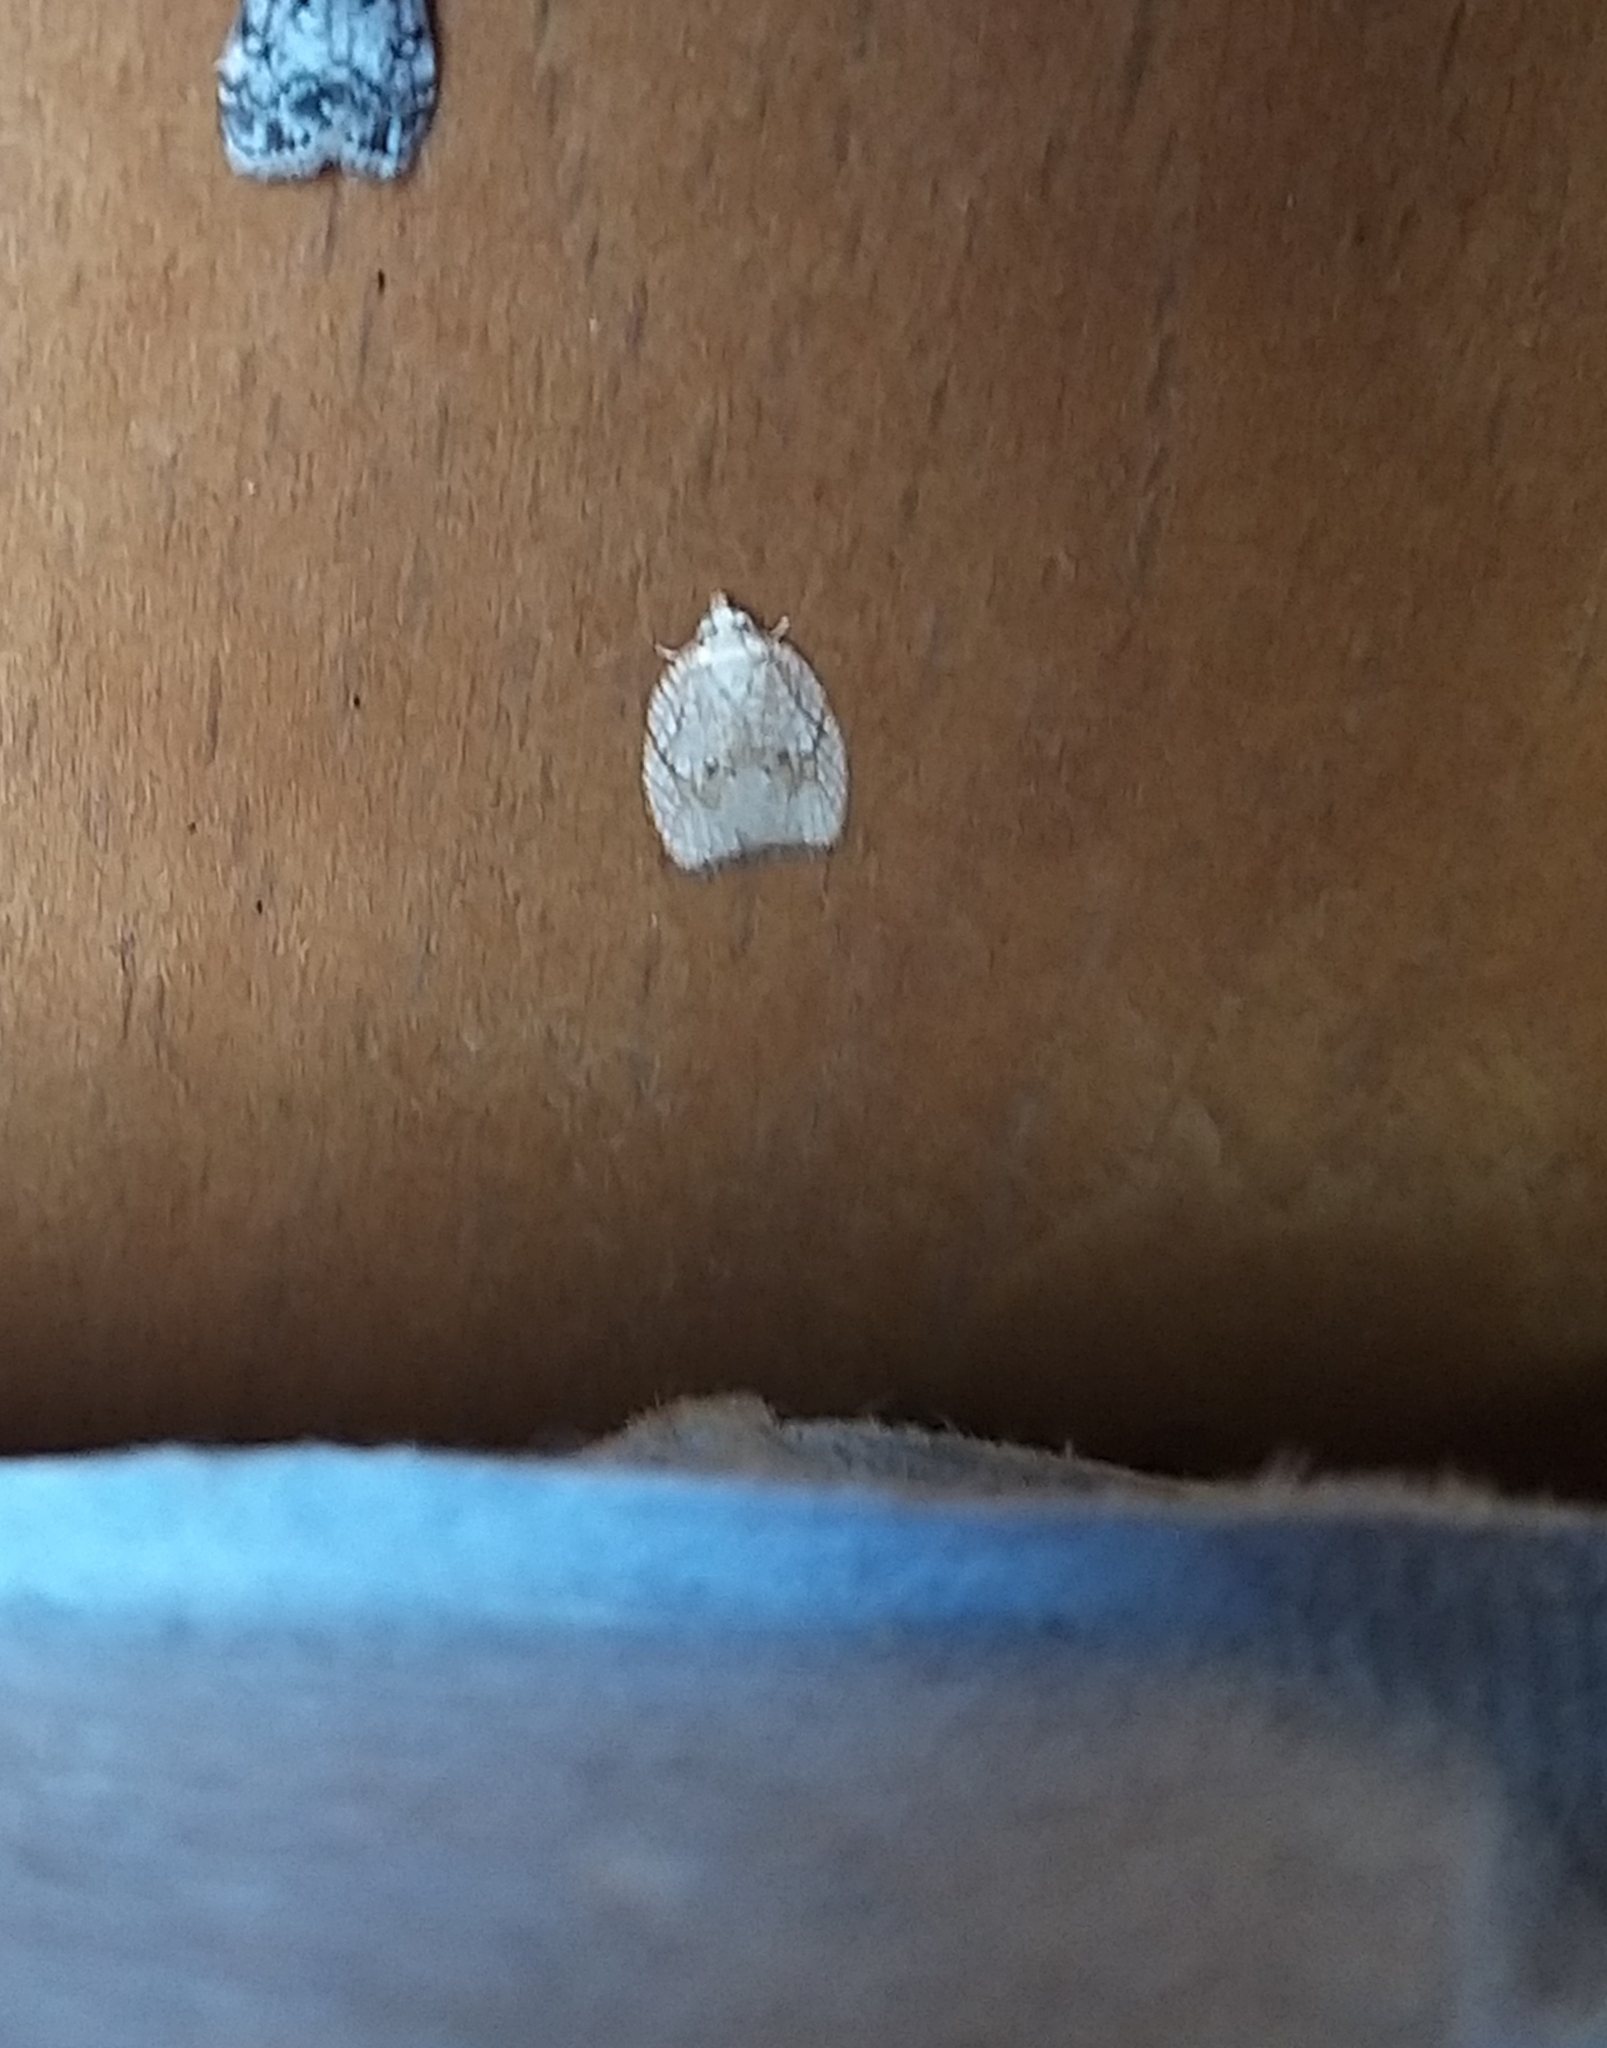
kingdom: Animalia
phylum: Arthropoda
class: Insecta
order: Lepidoptera
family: Tortricidae
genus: Acleris
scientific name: Acleris forsskaleana
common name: Maple button
